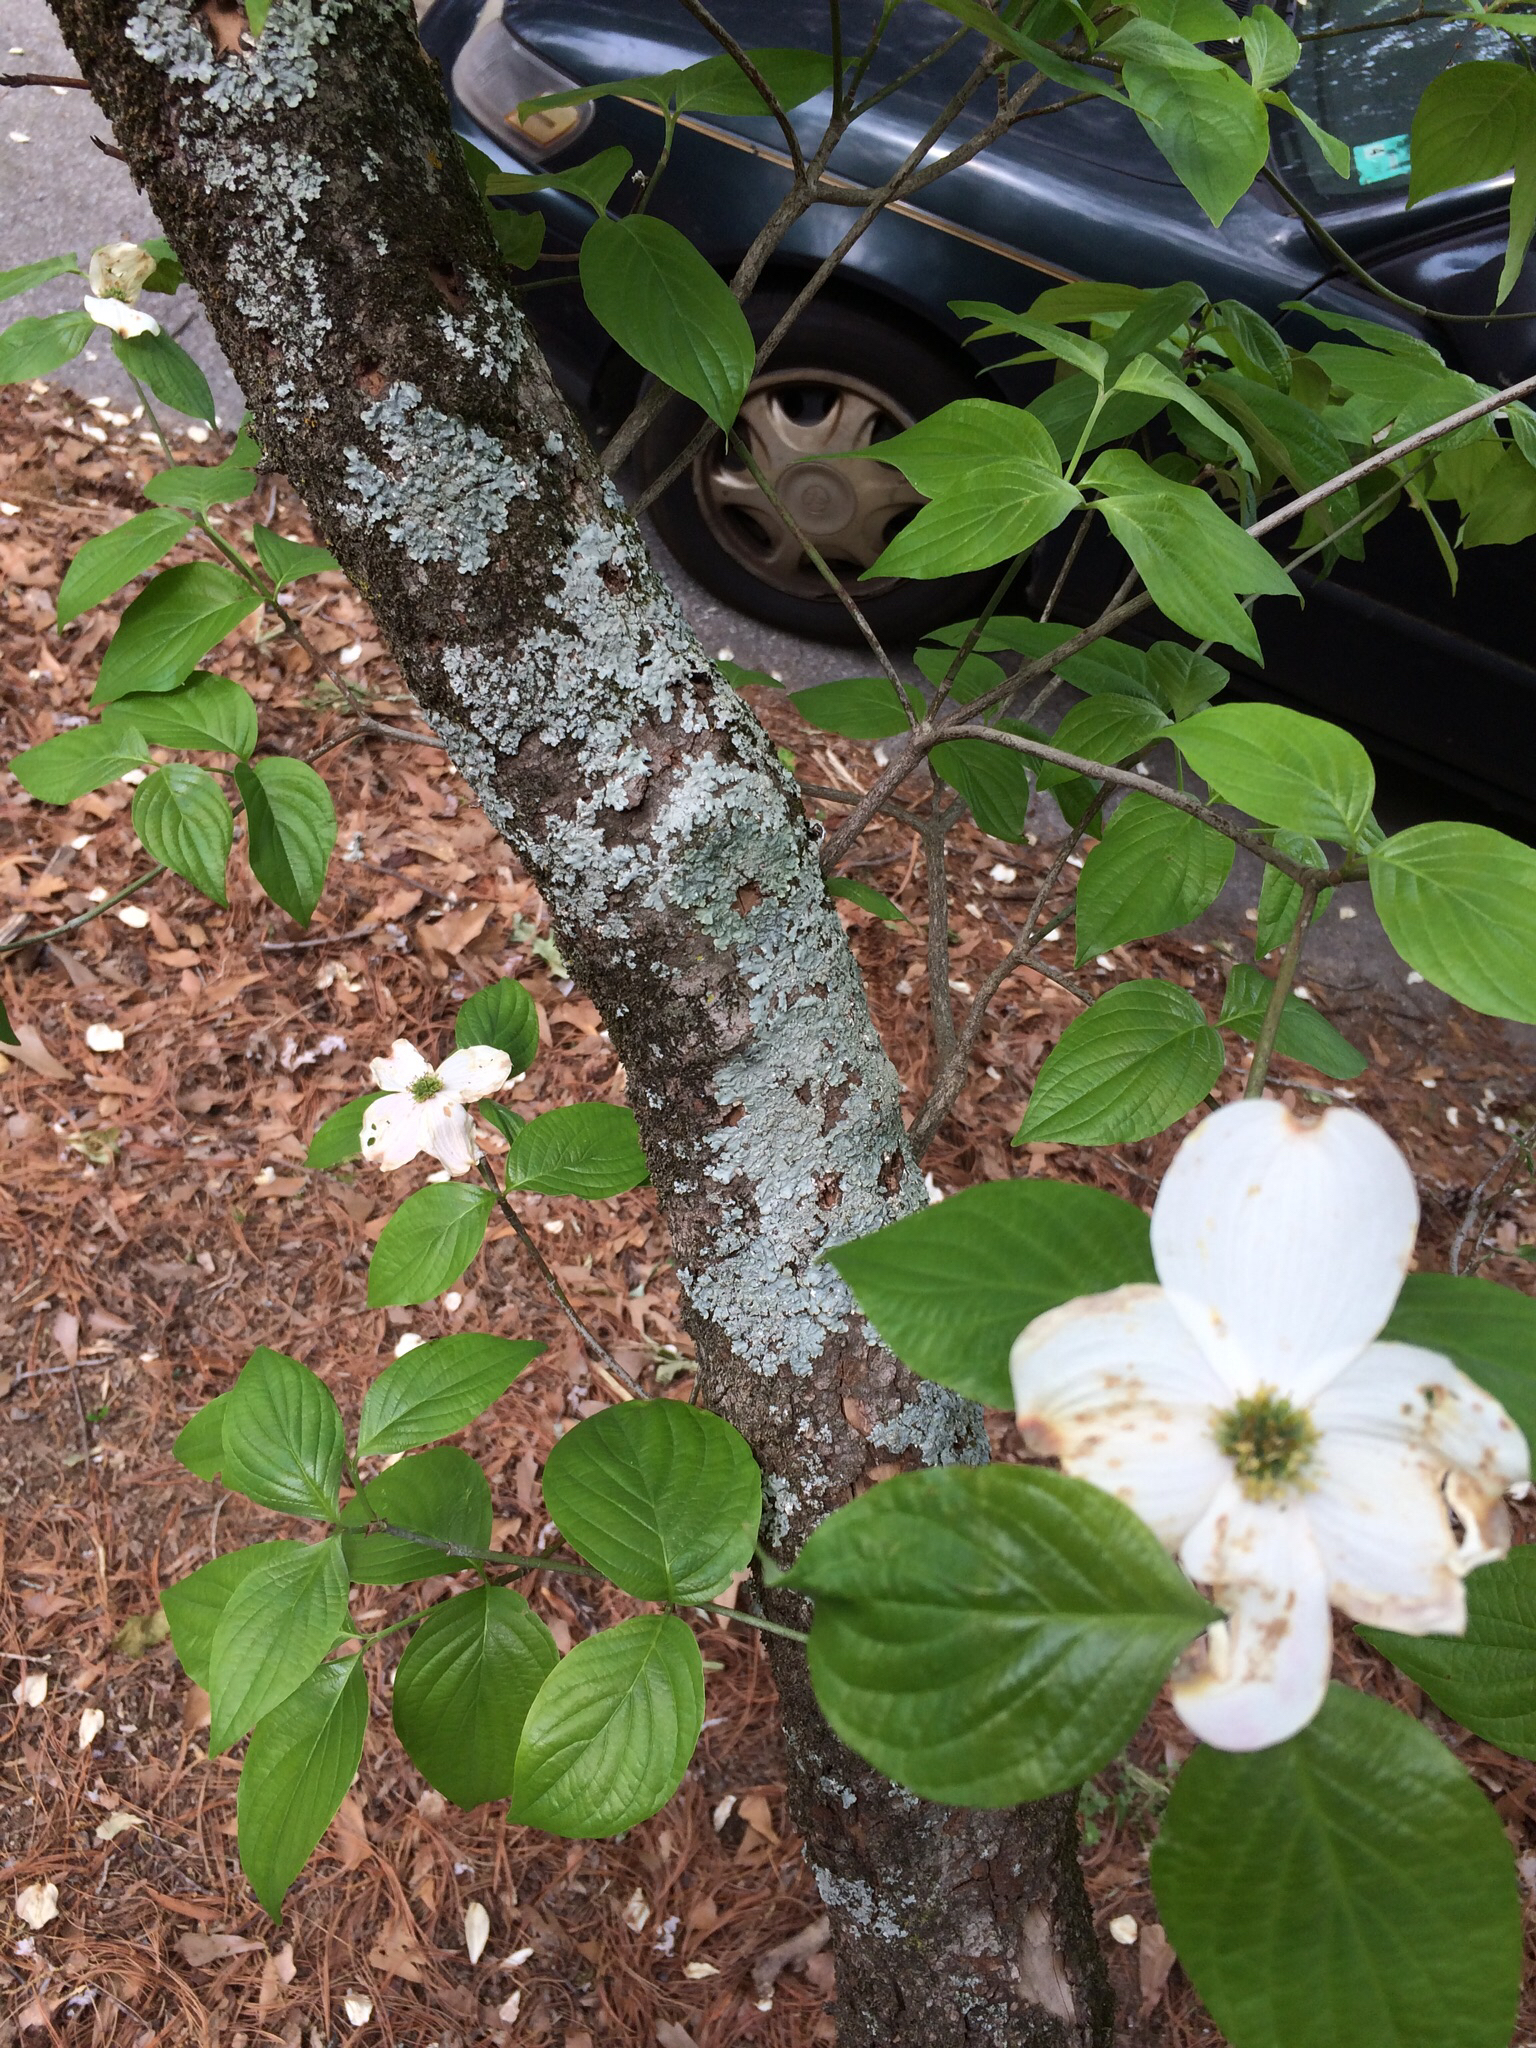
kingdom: Plantae
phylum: Tracheophyta
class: Magnoliopsida
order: Cornales
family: Cornaceae
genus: Cornus
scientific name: Cornus florida
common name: Flowering dogwood
